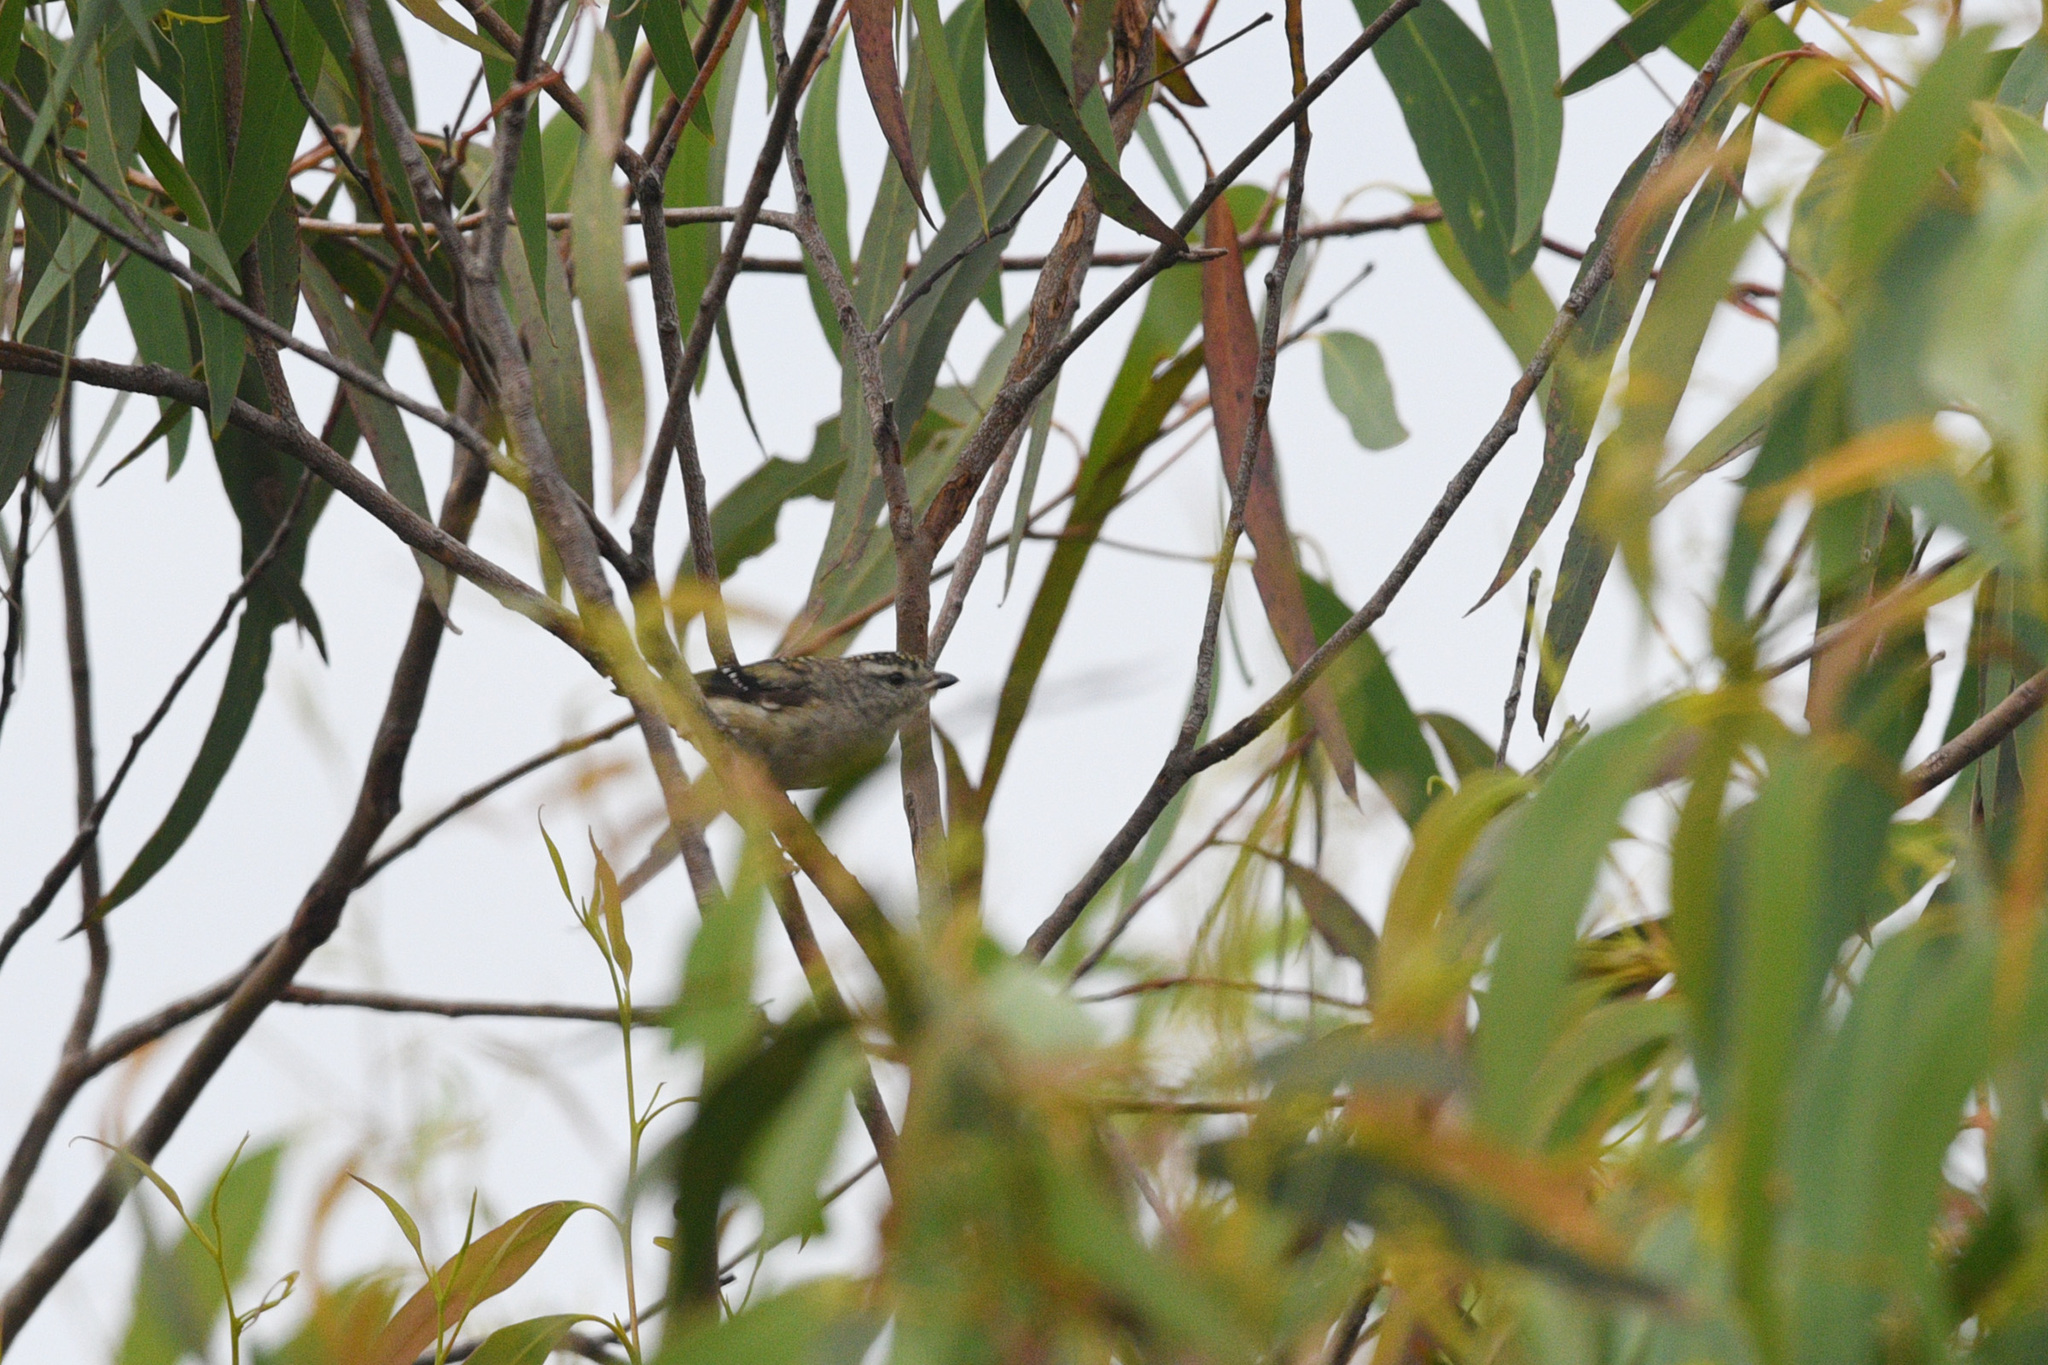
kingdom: Animalia
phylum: Chordata
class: Aves
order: Passeriformes
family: Pardalotidae
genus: Pardalotus
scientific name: Pardalotus punctatus
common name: Spotted pardalote
